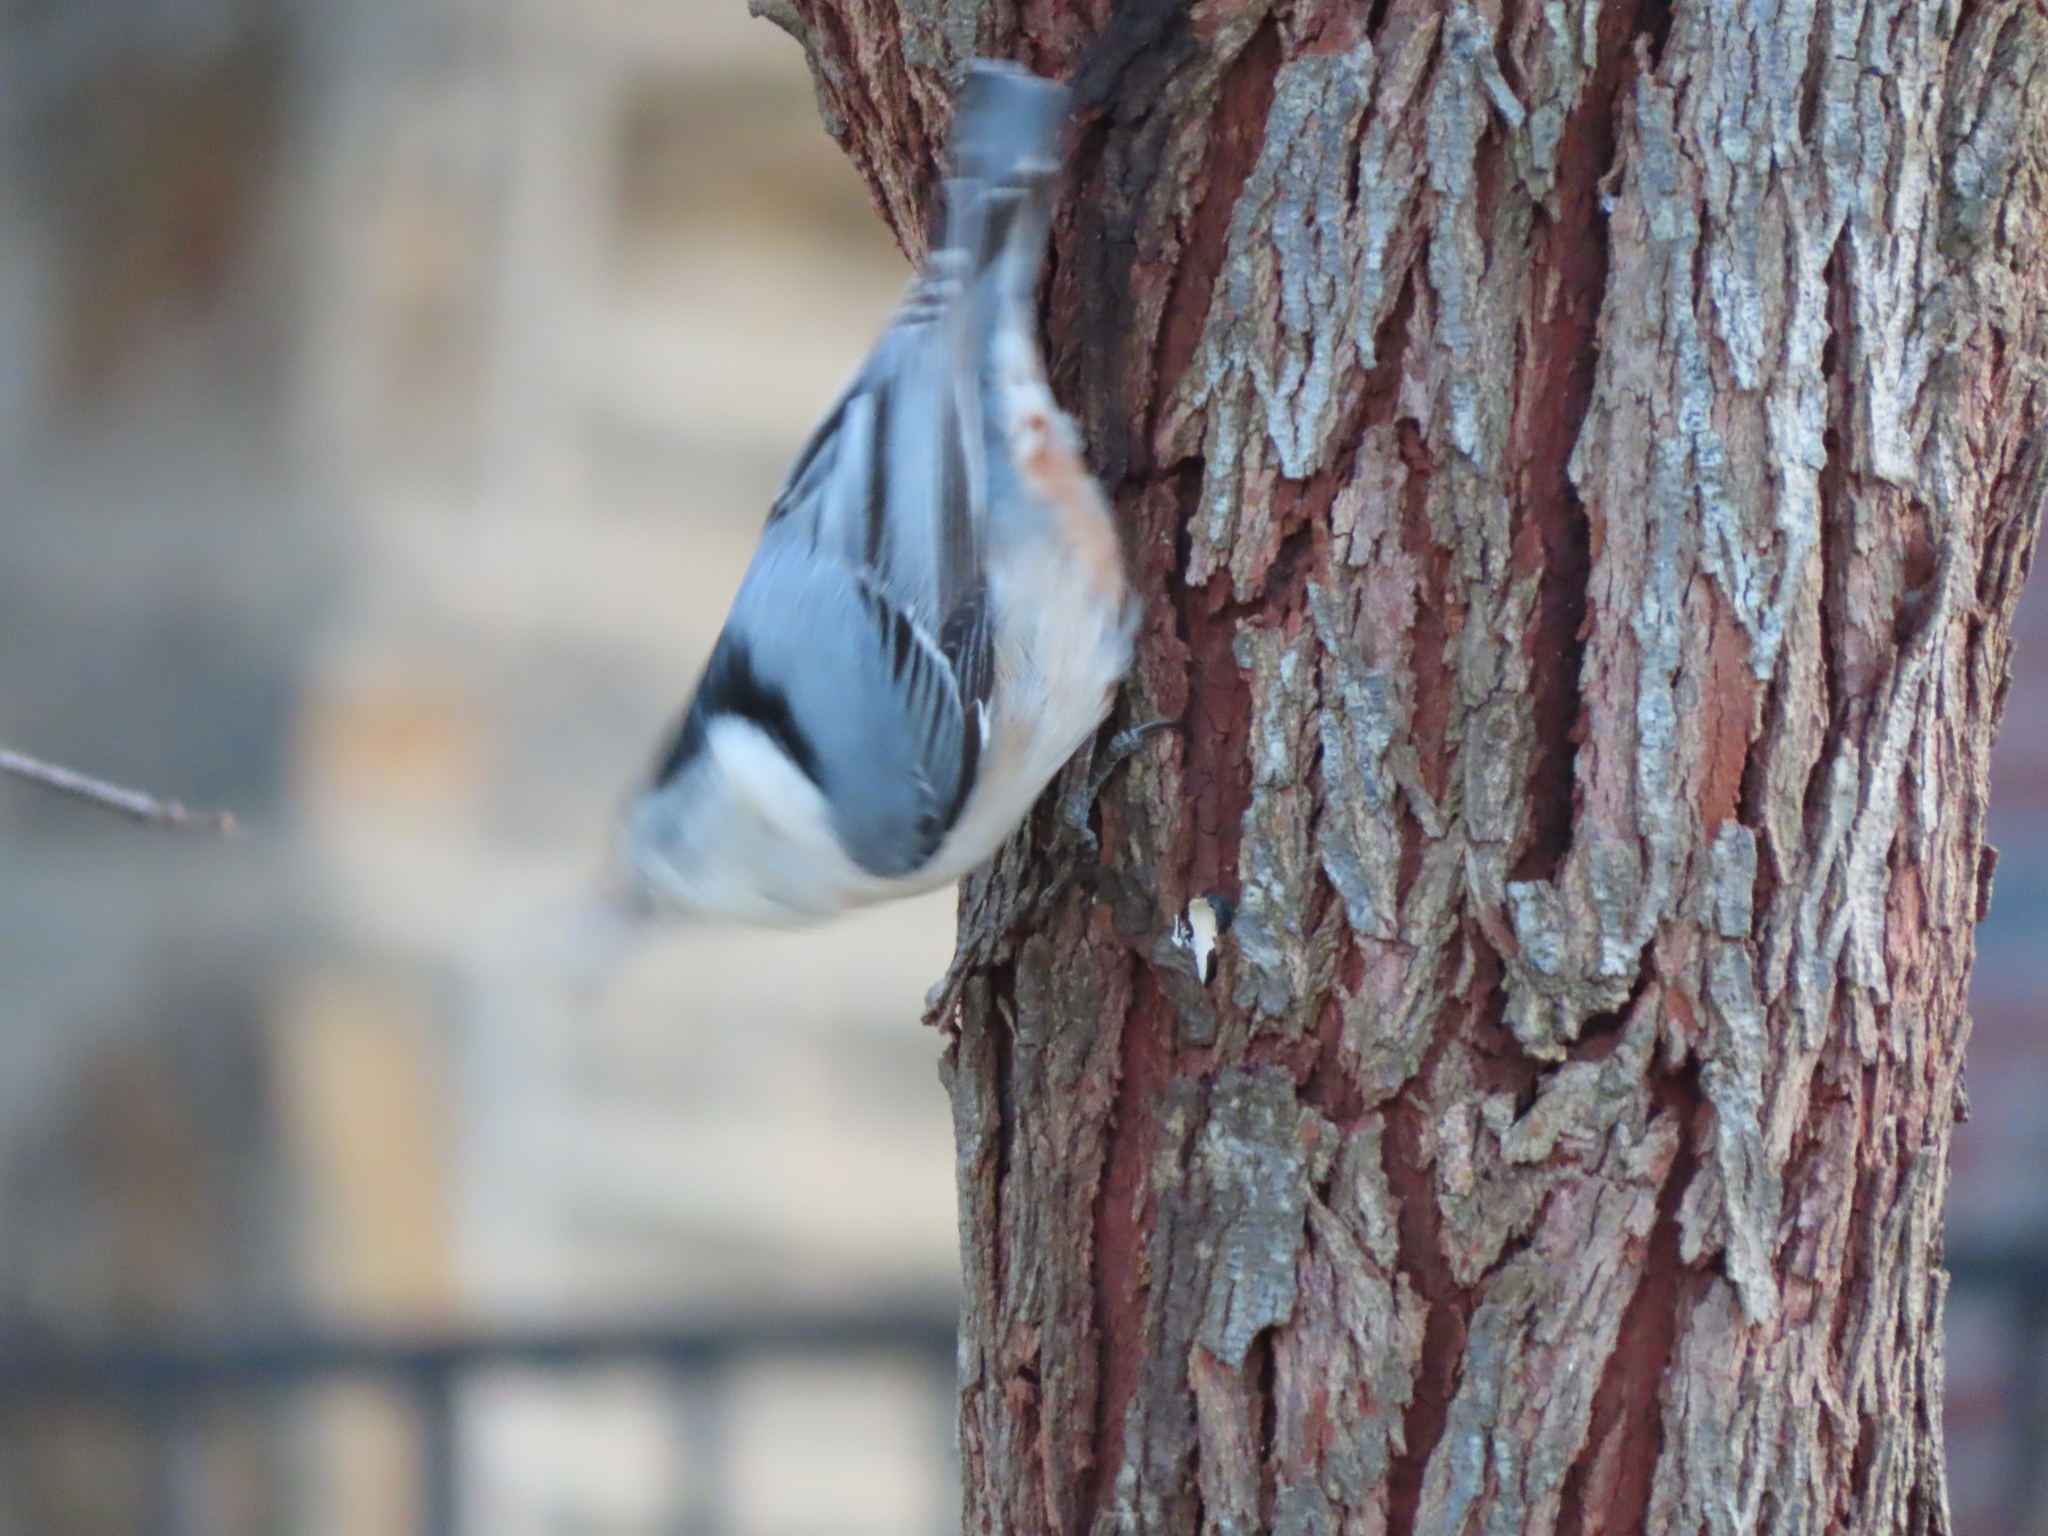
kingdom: Animalia
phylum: Chordata
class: Aves
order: Passeriformes
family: Sittidae
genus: Sitta
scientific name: Sitta carolinensis
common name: White-breasted nuthatch
